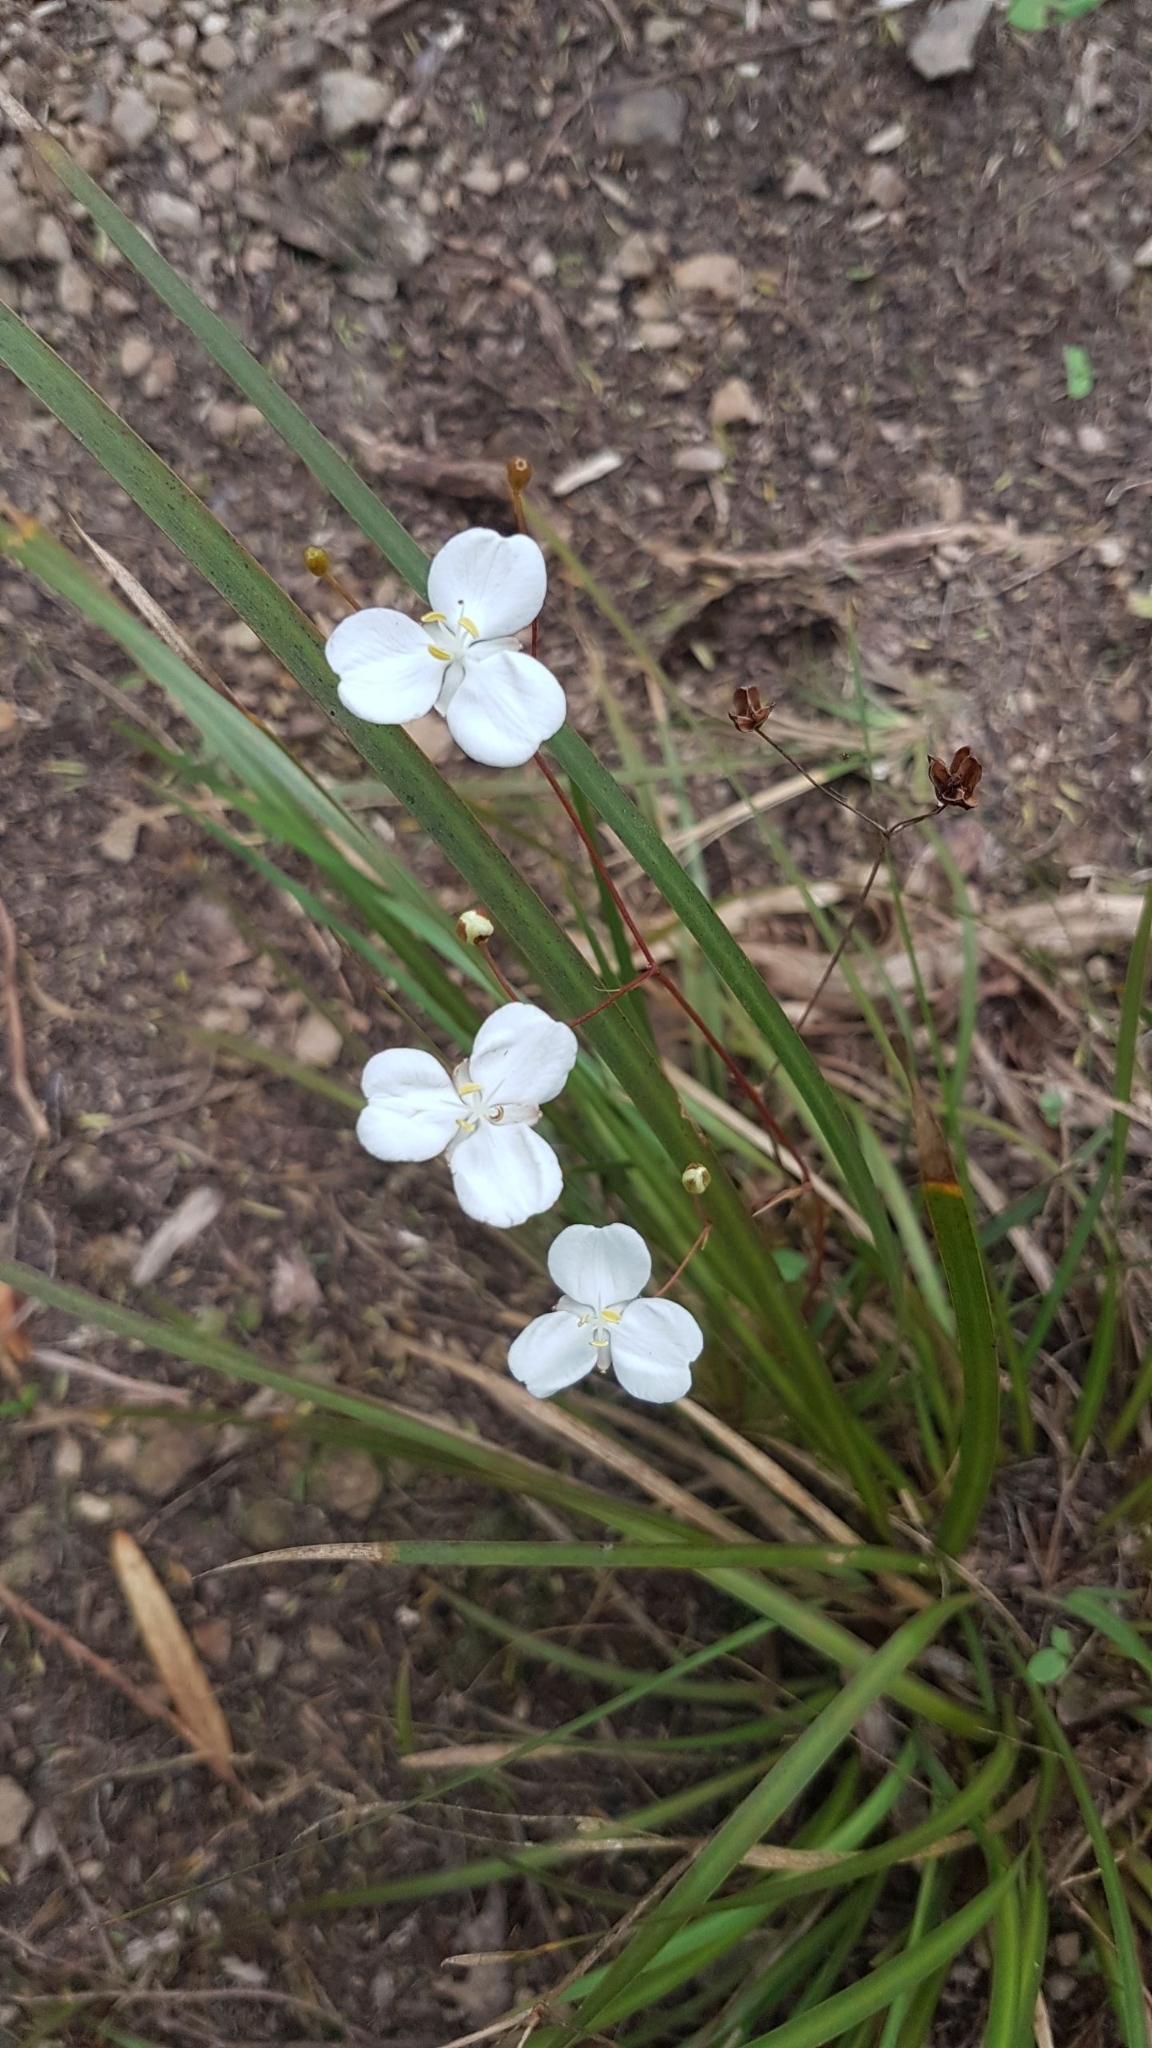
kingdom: Plantae
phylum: Tracheophyta
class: Liliopsida
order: Asparagales
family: Iridaceae
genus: Libertia
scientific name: Libertia ixioides
